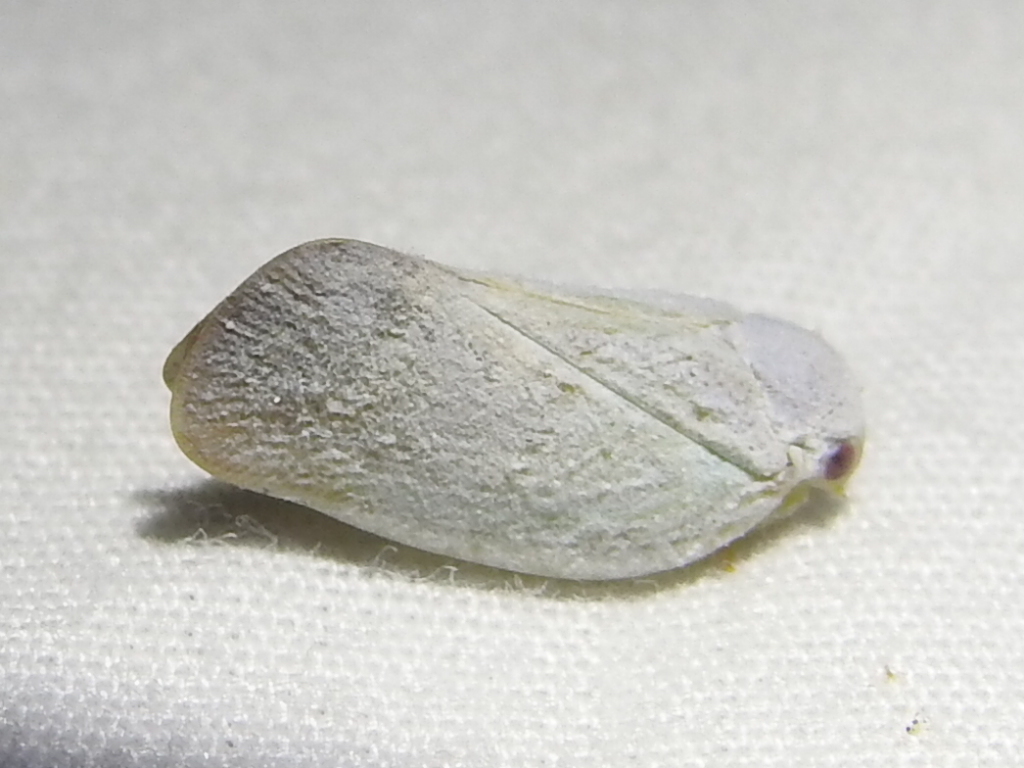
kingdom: Animalia
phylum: Arthropoda
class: Insecta
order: Hemiptera
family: Flatidae
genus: Flatormenis
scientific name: Flatormenis saucia
